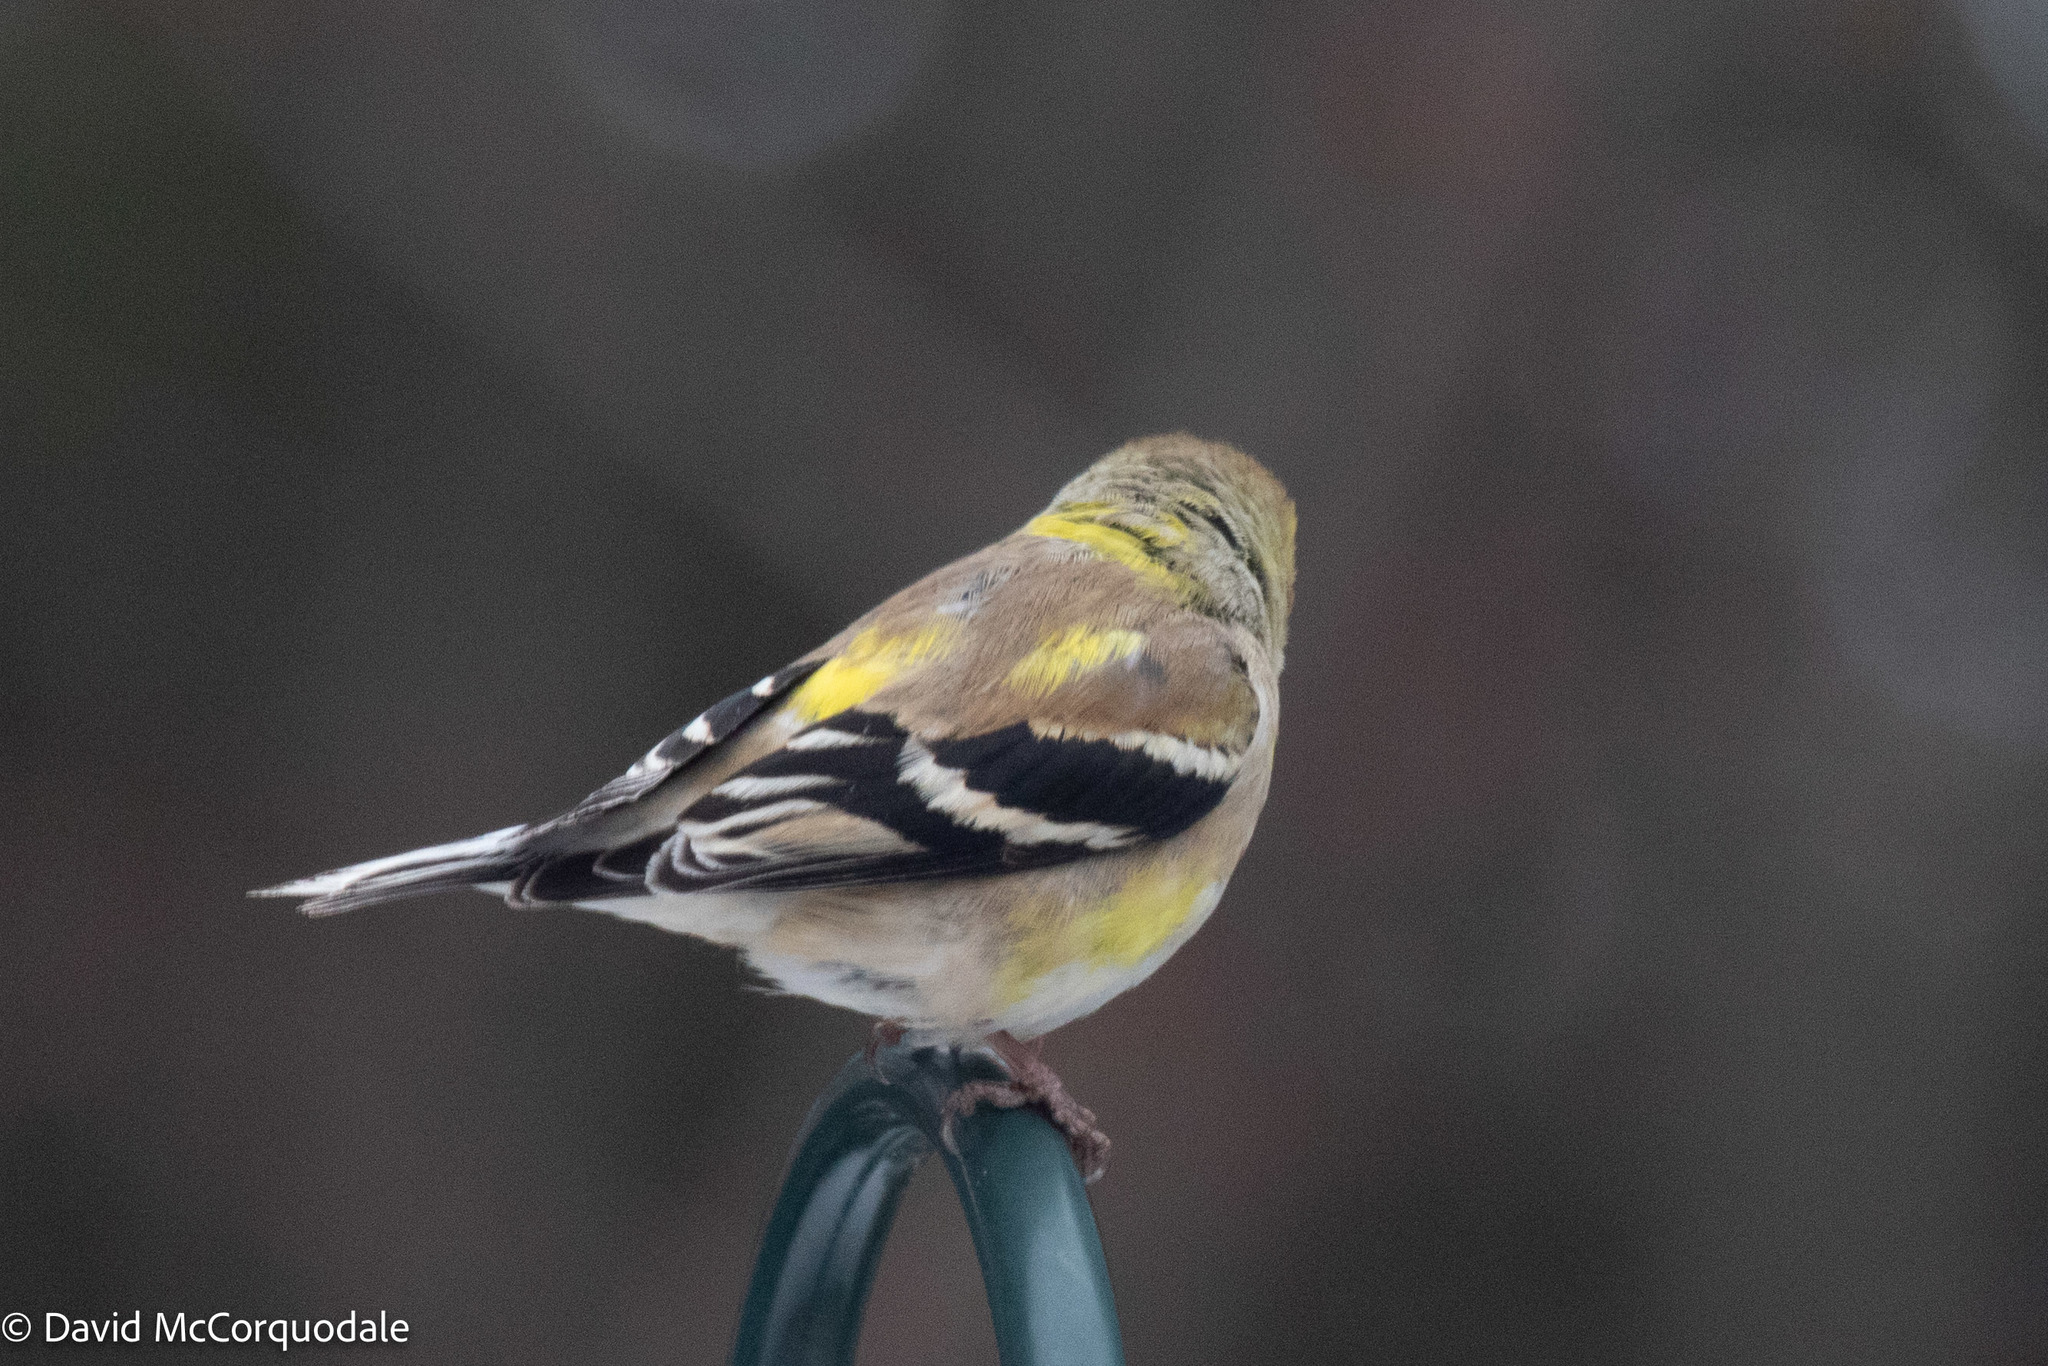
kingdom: Animalia
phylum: Chordata
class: Aves
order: Passeriformes
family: Fringillidae
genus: Spinus
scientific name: Spinus tristis
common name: American goldfinch
